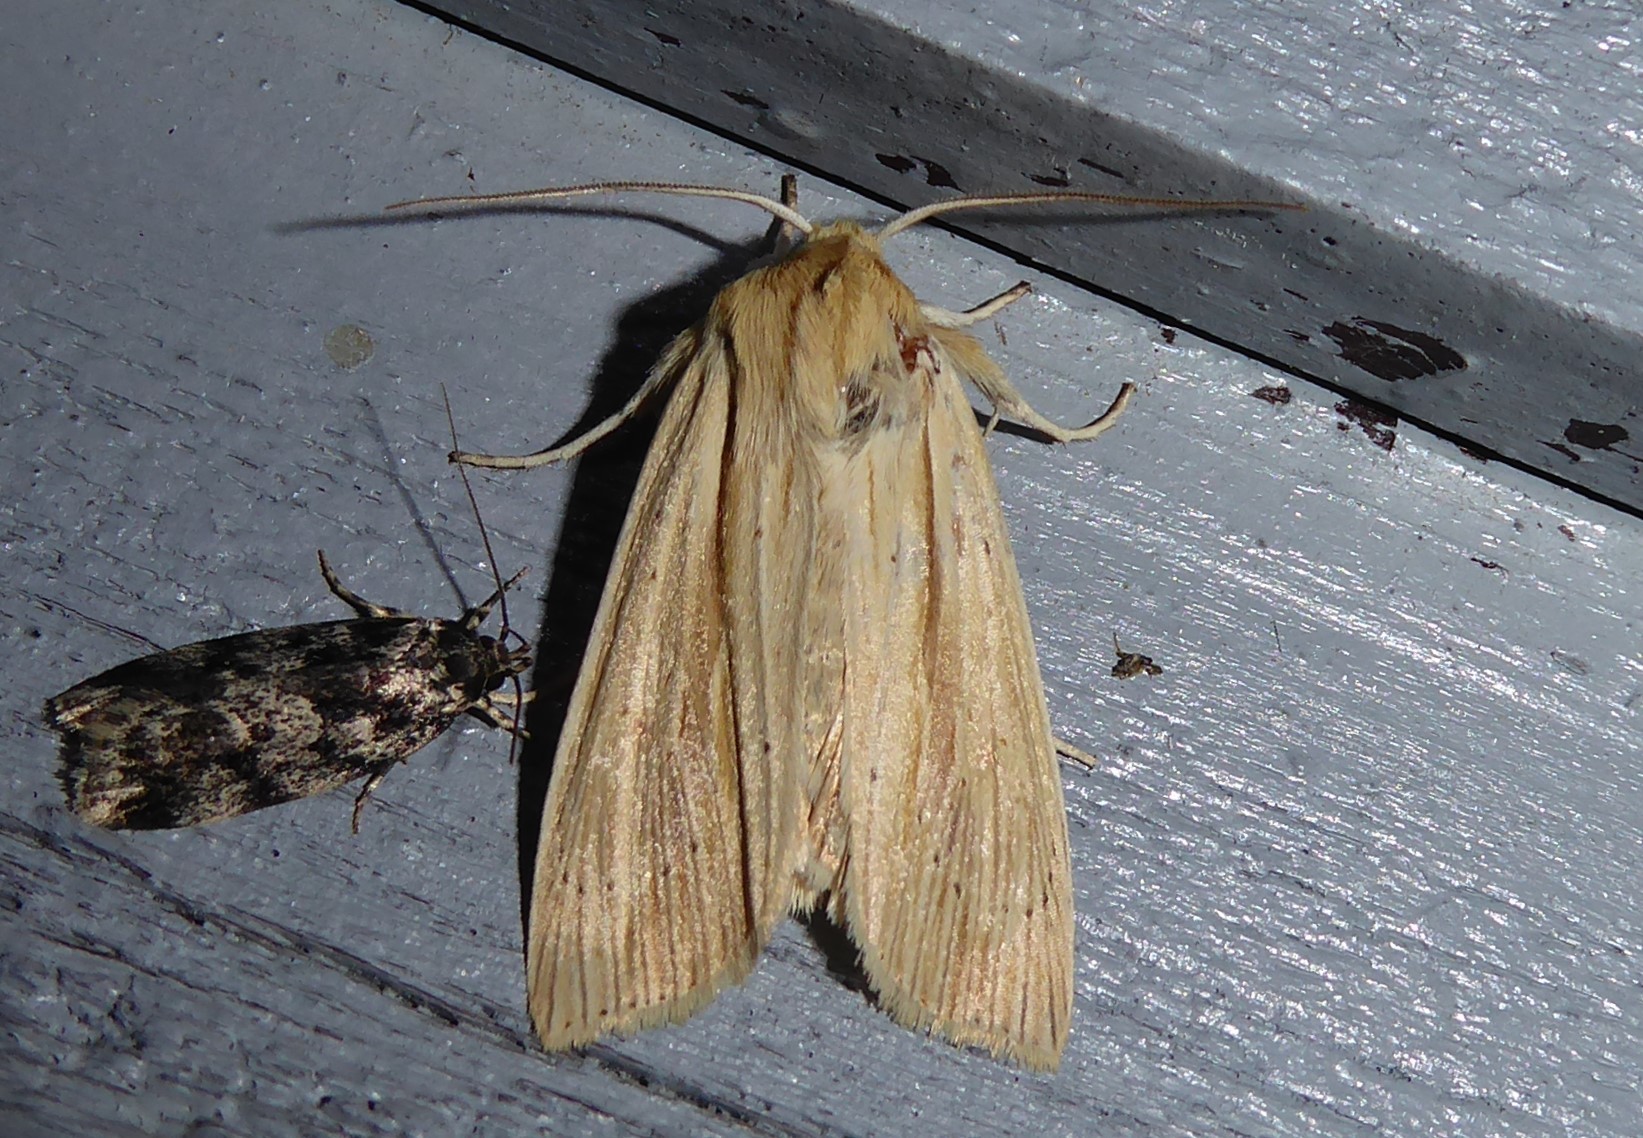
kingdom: Animalia
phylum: Arthropoda
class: Insecta
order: Lepidoptera
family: Noctuidae
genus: Ichneutica
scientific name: Ichneutica semivittata
